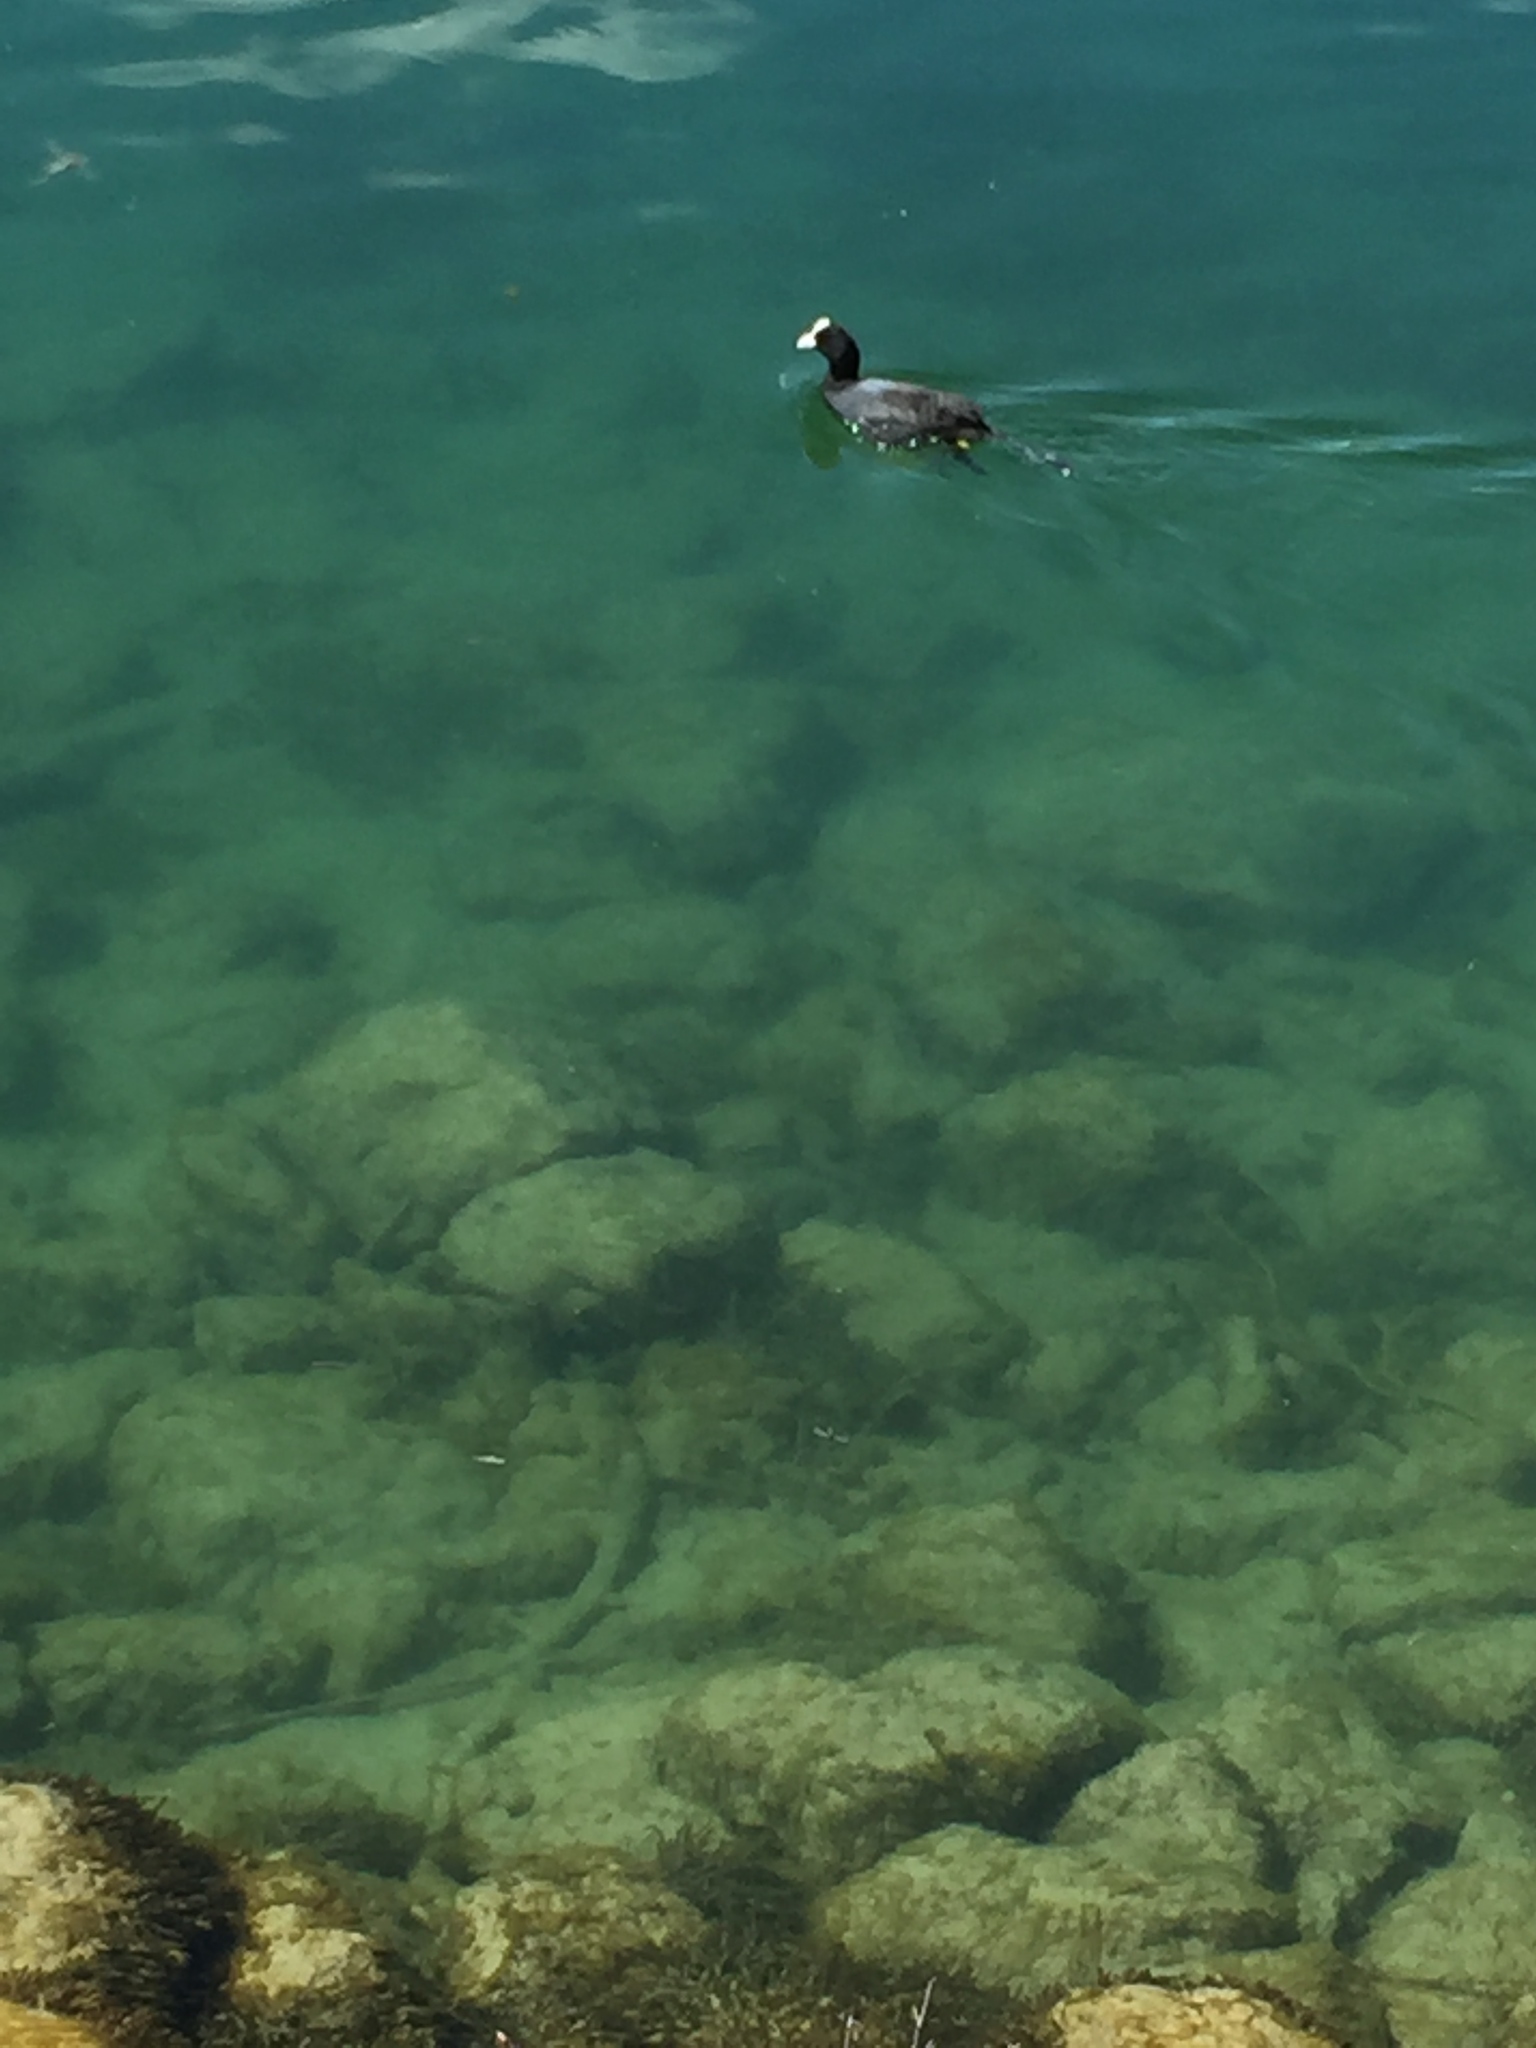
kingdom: Animalia
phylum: Chordata
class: Aves
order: Gruiformes
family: Rallidae
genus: Fulica
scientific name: Fulica atra
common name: Eurasian coot
